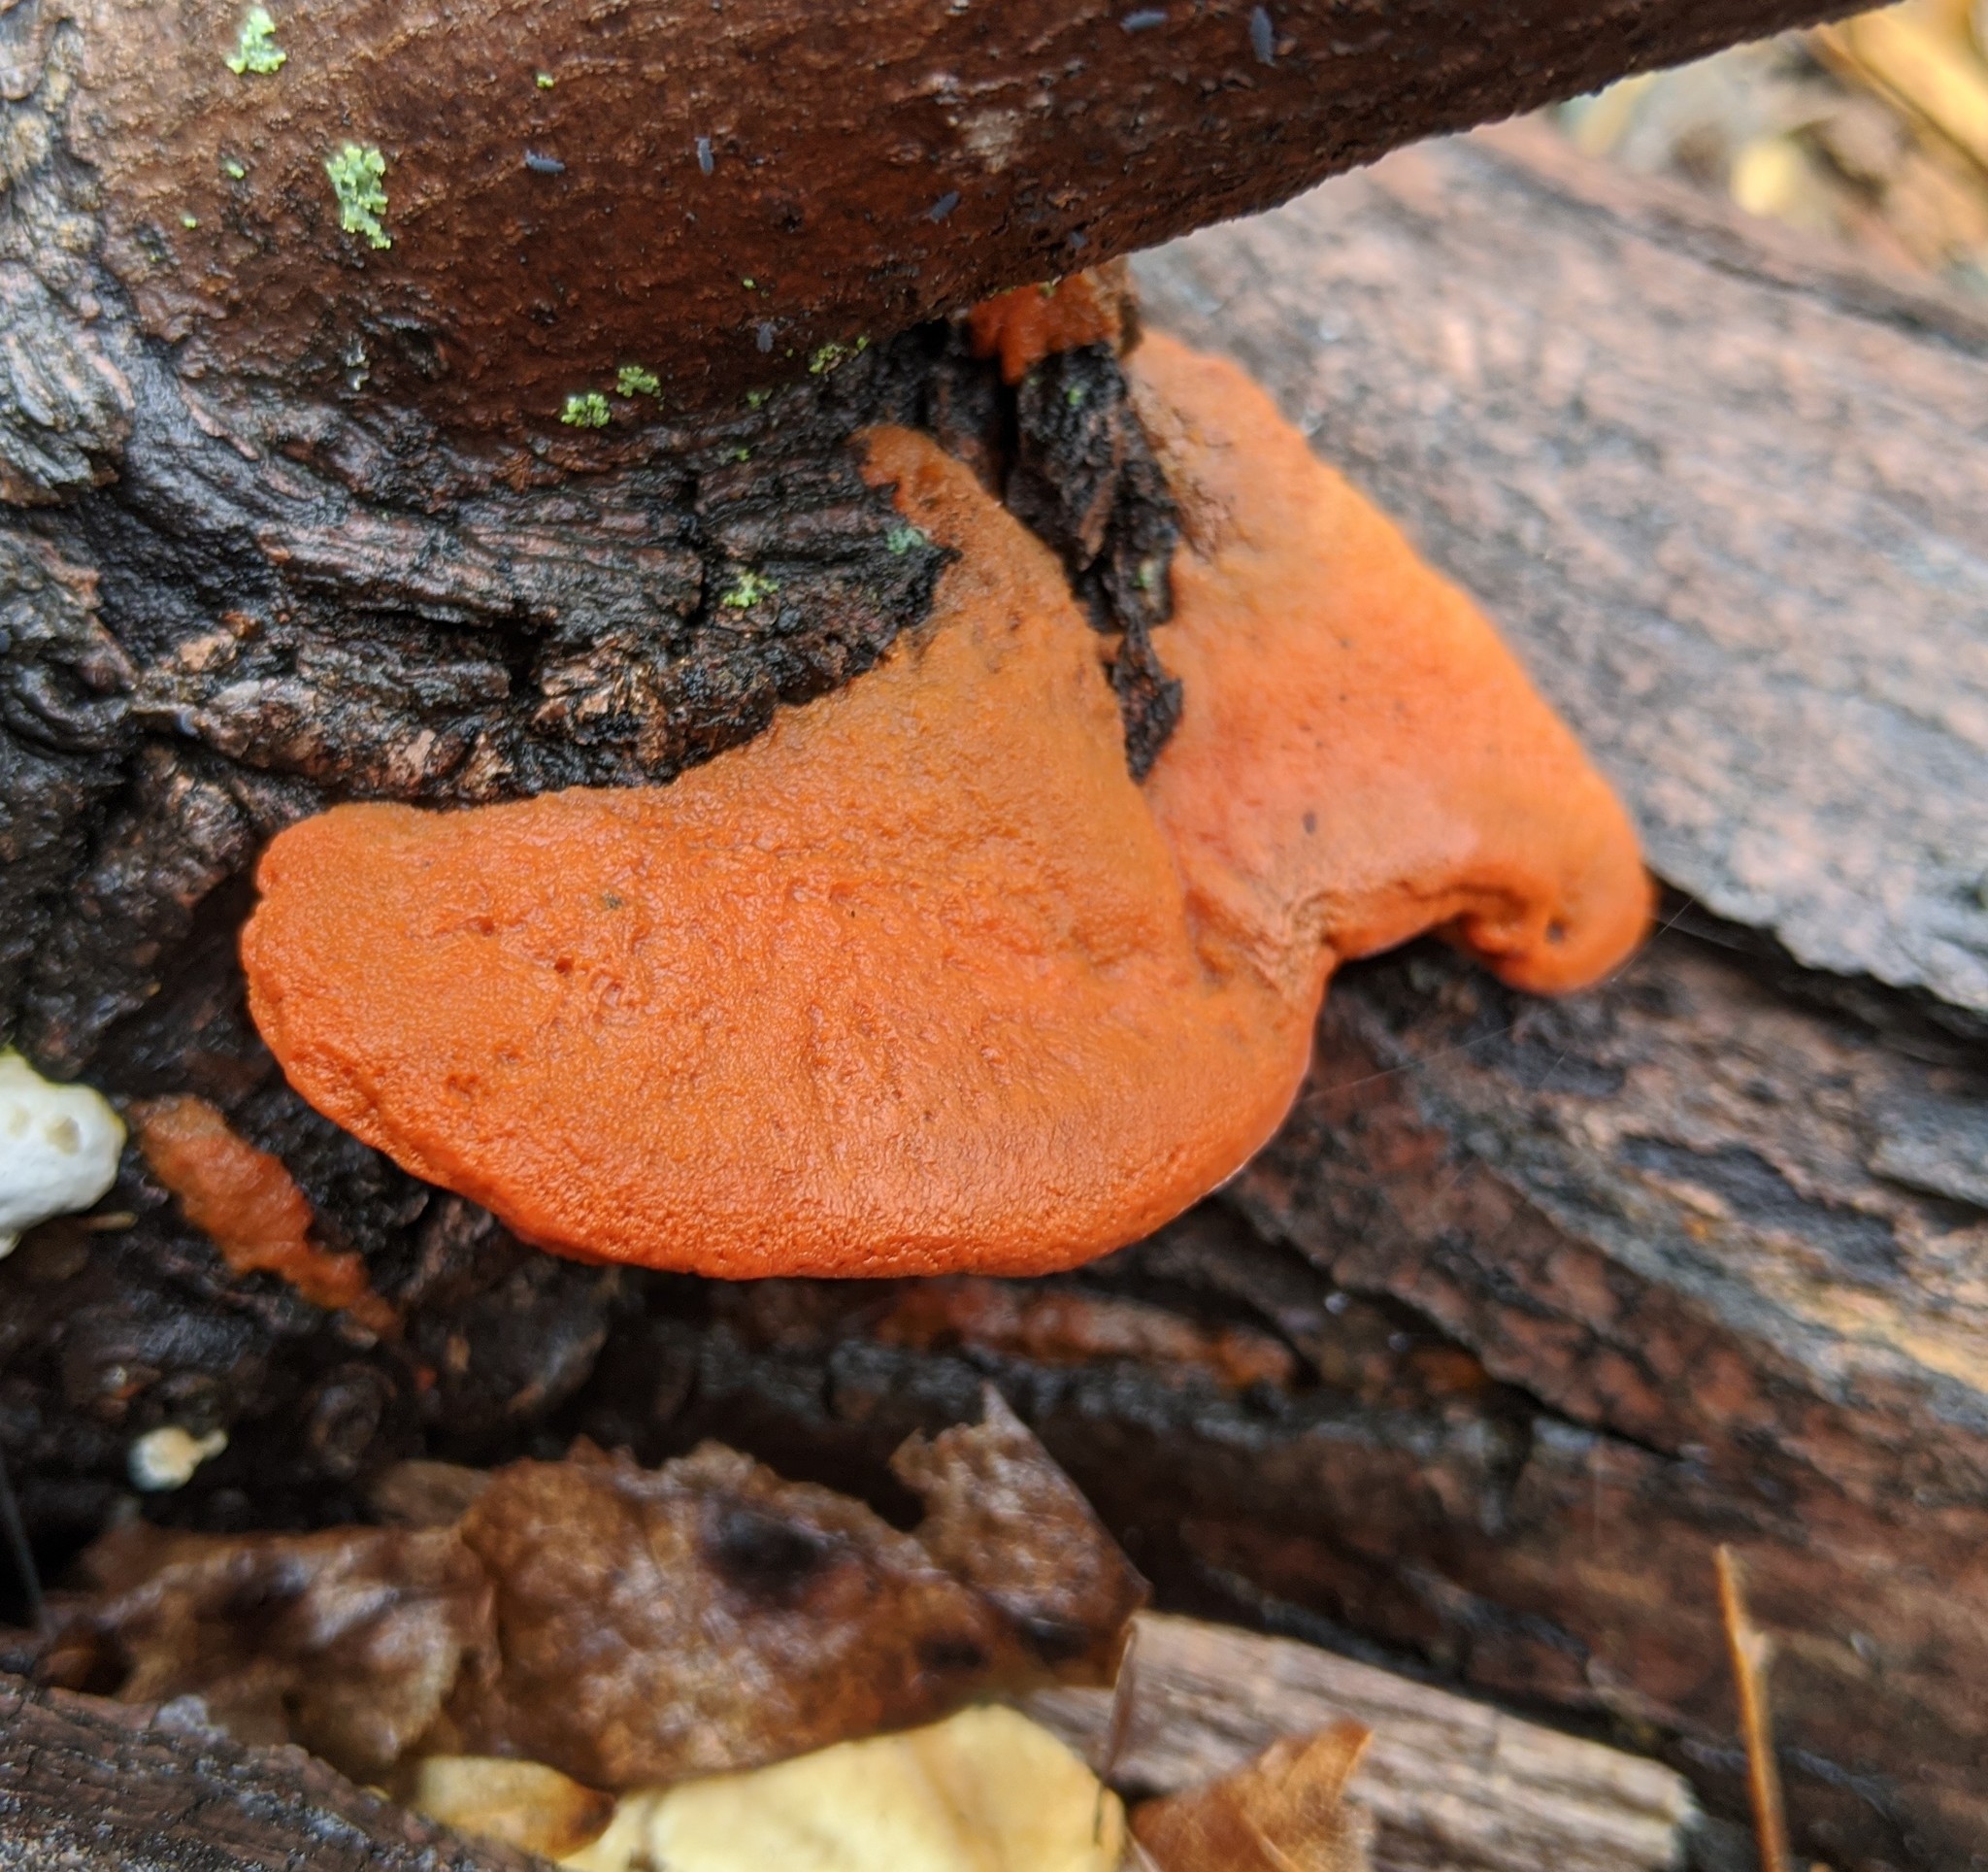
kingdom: Fungi
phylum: Basidiomycota
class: Agaricomycetes
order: Polyporales
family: Polyporaceae
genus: Trametes
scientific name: Trametes cinnabarina
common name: Northern cinnabar polypore
